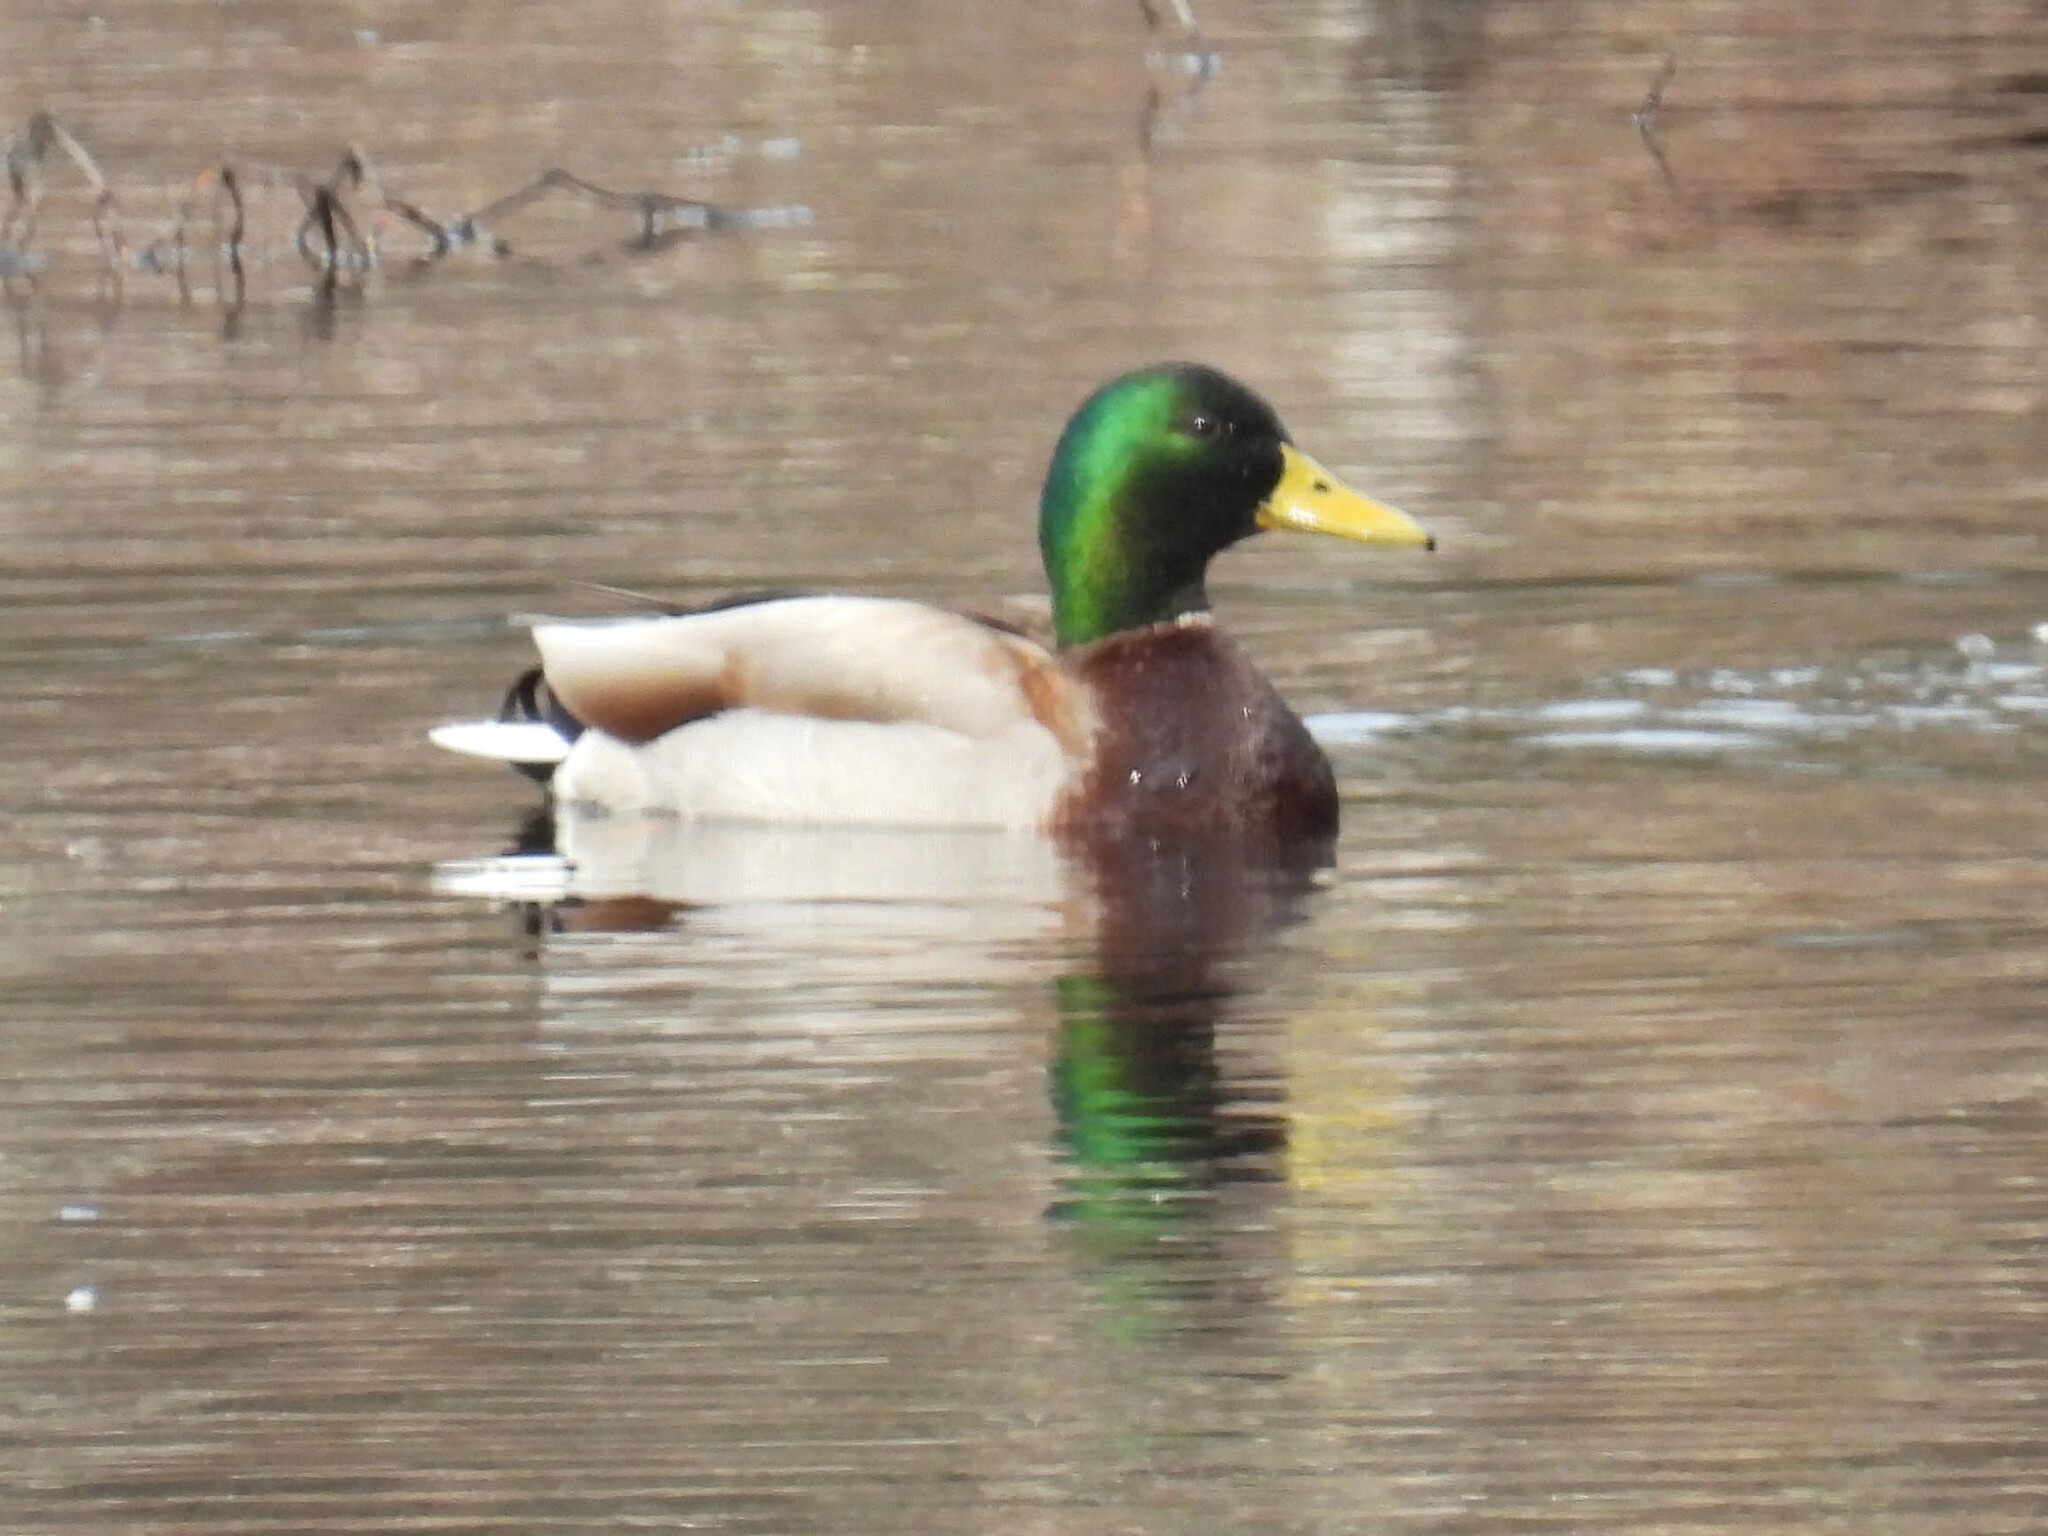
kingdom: Animalia
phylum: Chordata
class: Aves
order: Anseriformes
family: Anatidae
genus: Anas
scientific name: Anas platyrhynchos
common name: Mallard
